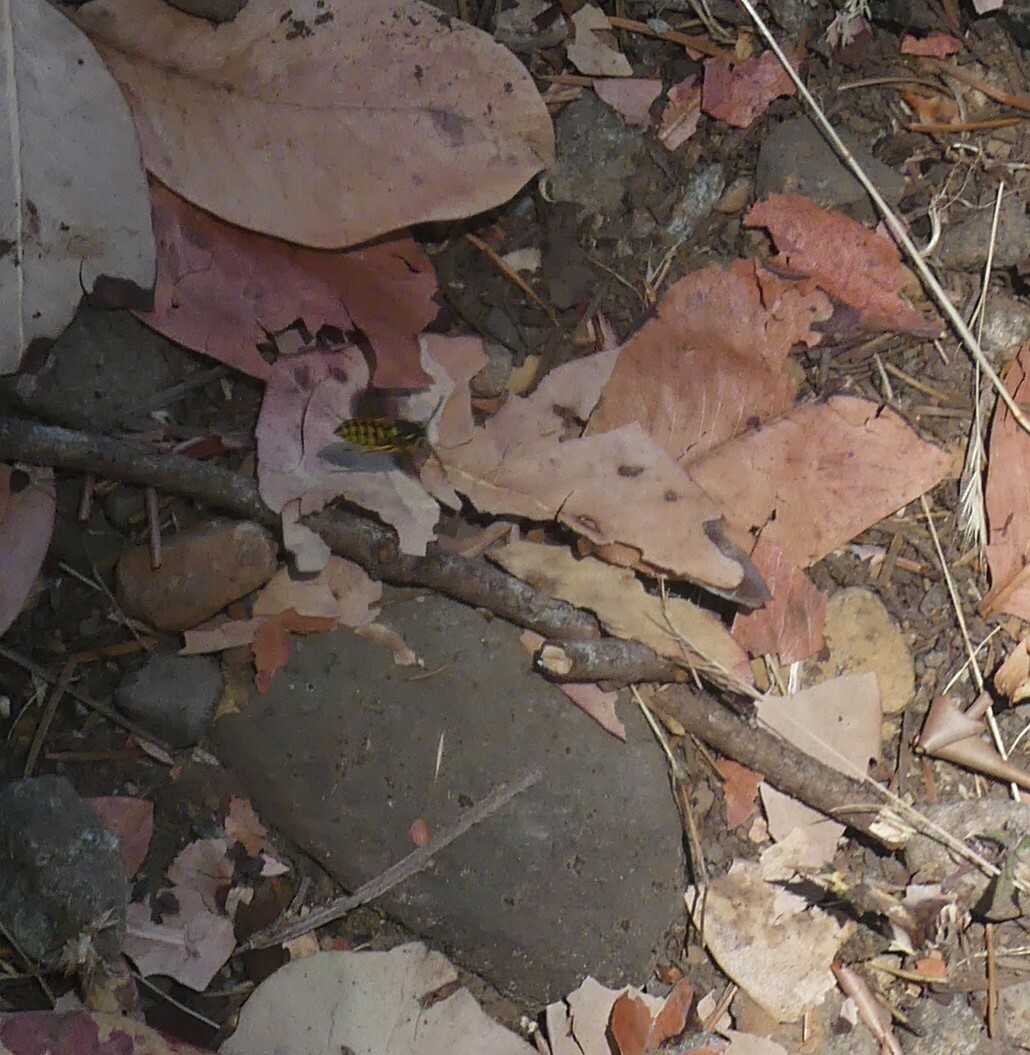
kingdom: Animalia
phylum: Arthropoda
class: Insecta
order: Hymenoptera
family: Vespidae
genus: Vespula
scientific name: Vespula pensylvanica
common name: Western yellowjacket
